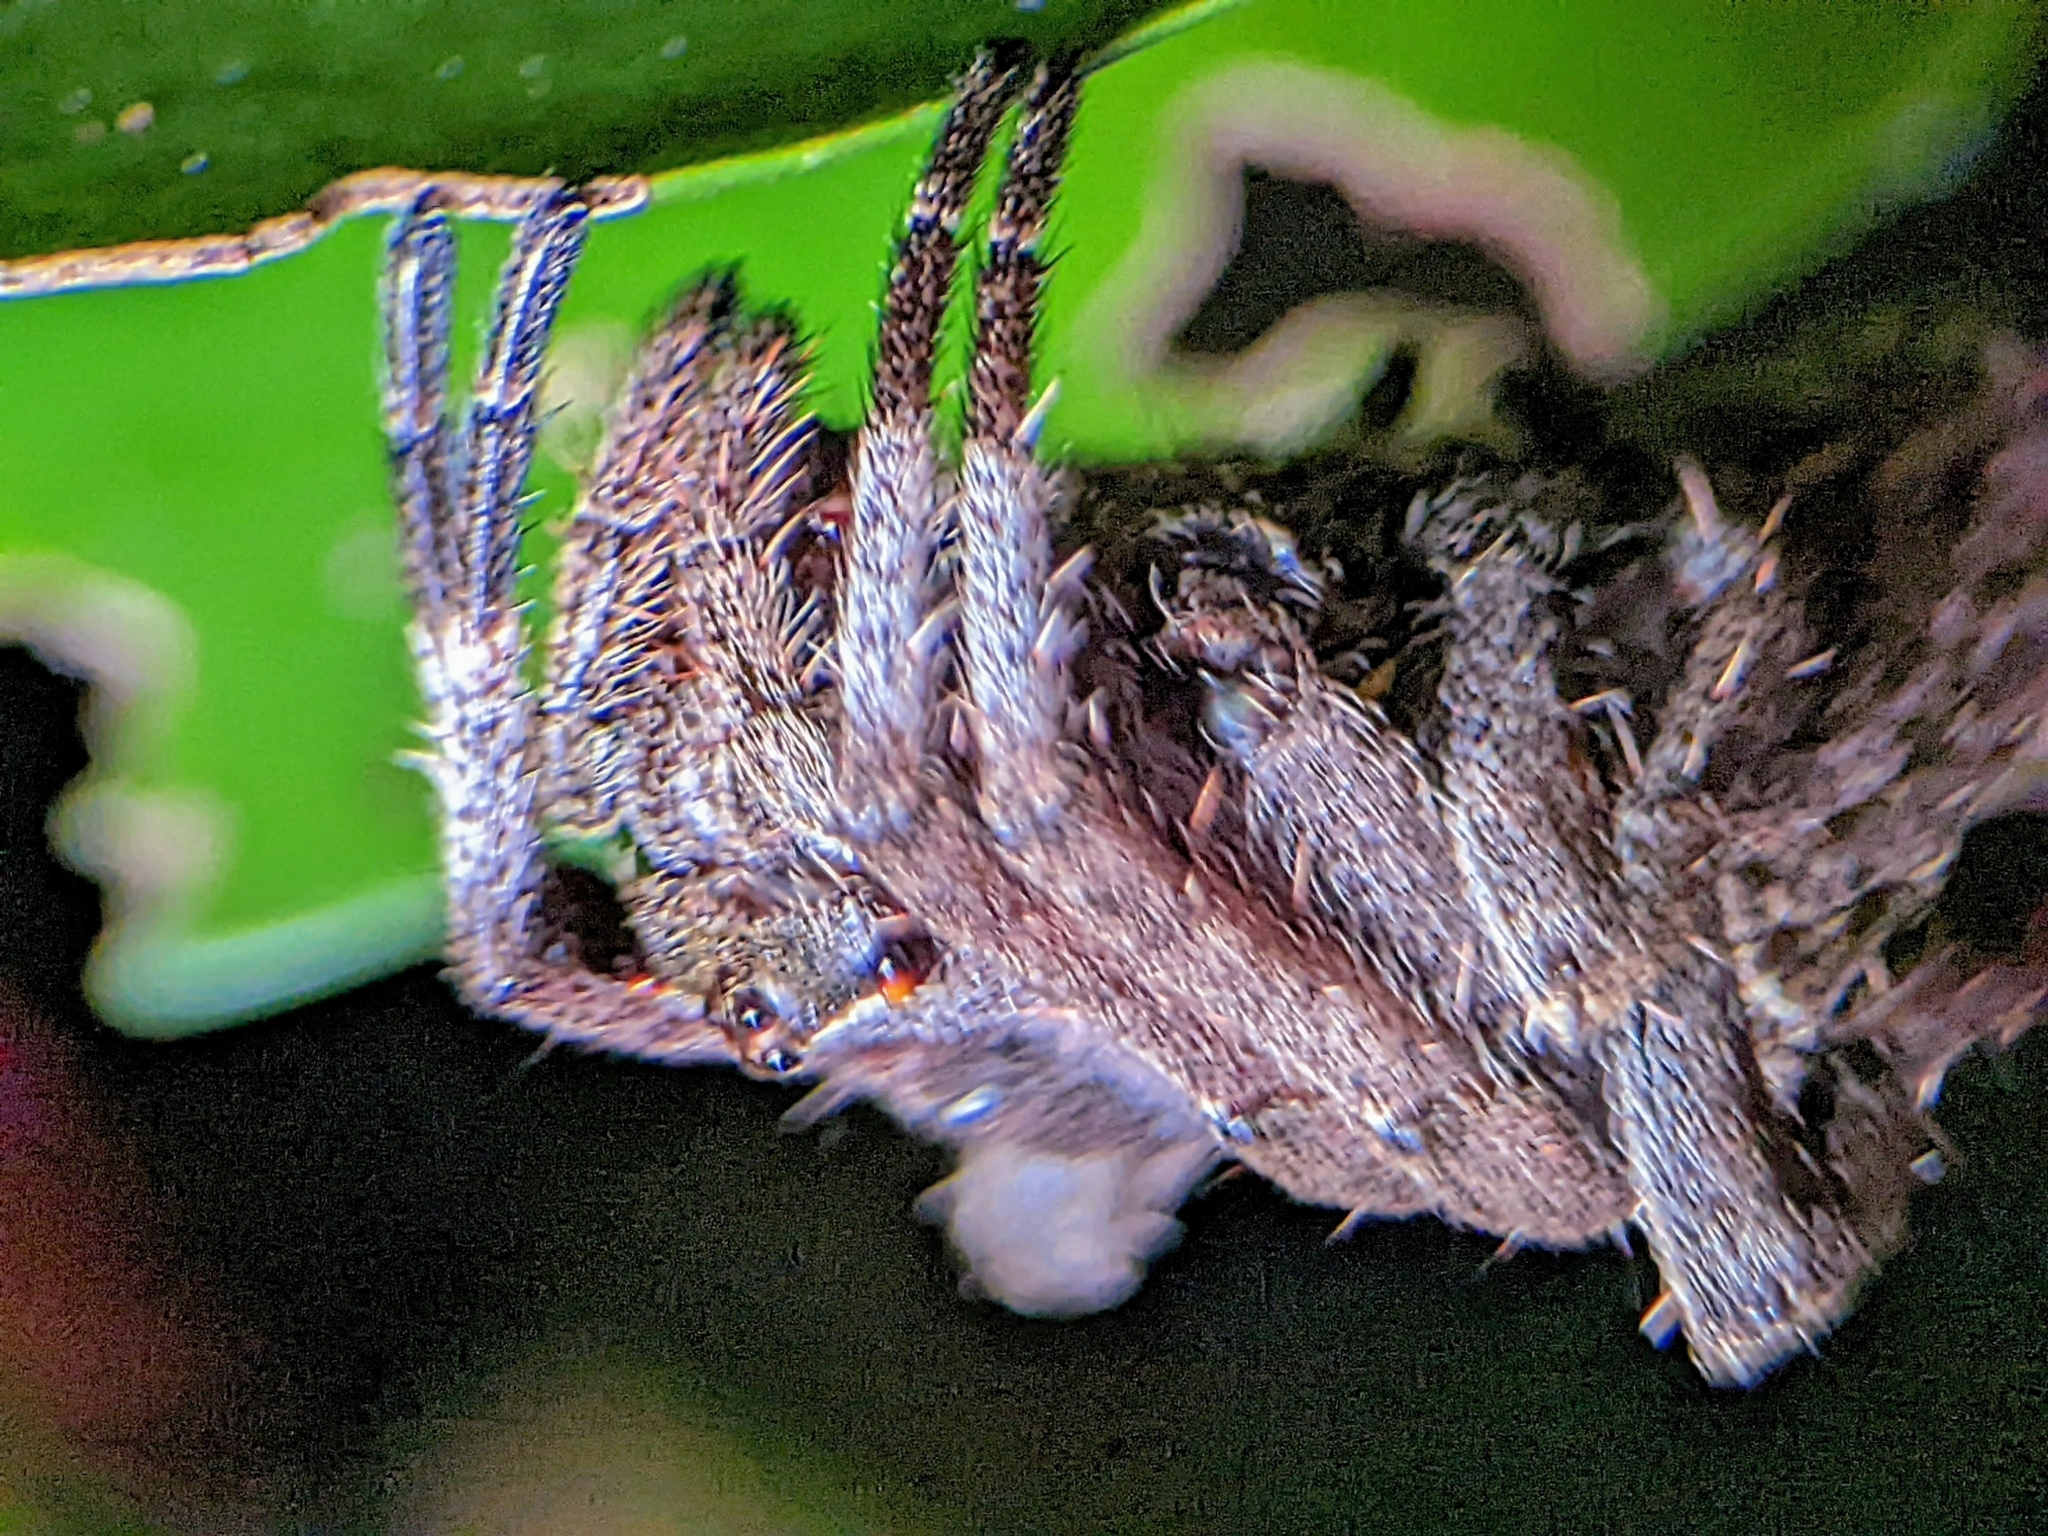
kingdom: Animalia
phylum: Arthropoda
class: Arachnida
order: Araneae
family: Araneidae
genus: Parawixia
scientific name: Parawixia dehaani
